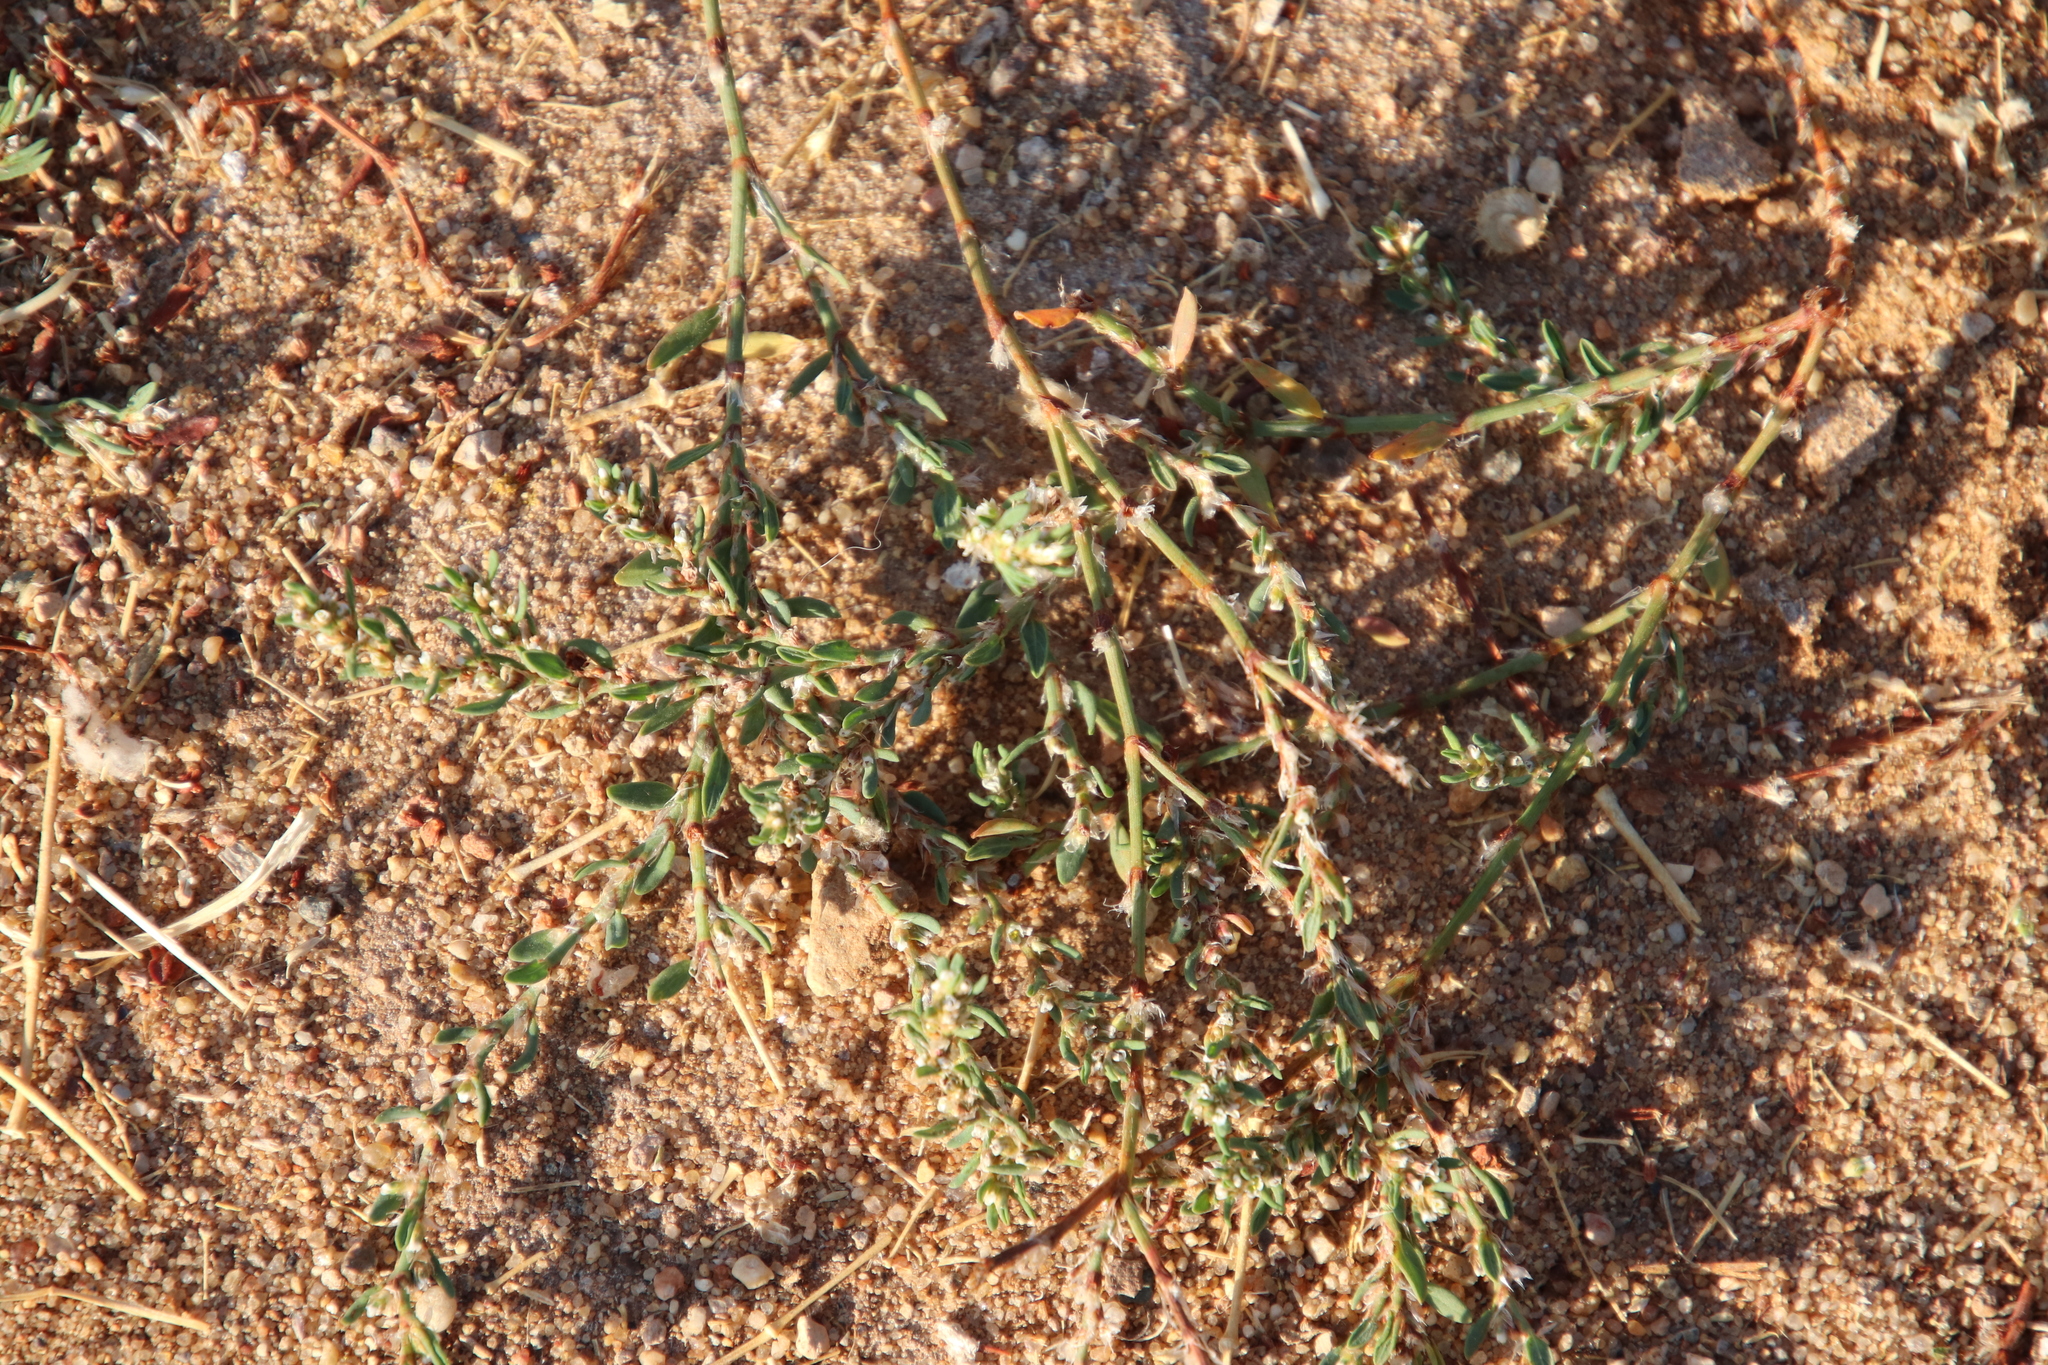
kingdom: Plantae
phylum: Tracheophyta
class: Magnoliopsida
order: Caryophyllales
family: Polygonaceae
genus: Polygonum
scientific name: Polygonum aviculare
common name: Prostrate knotweed
